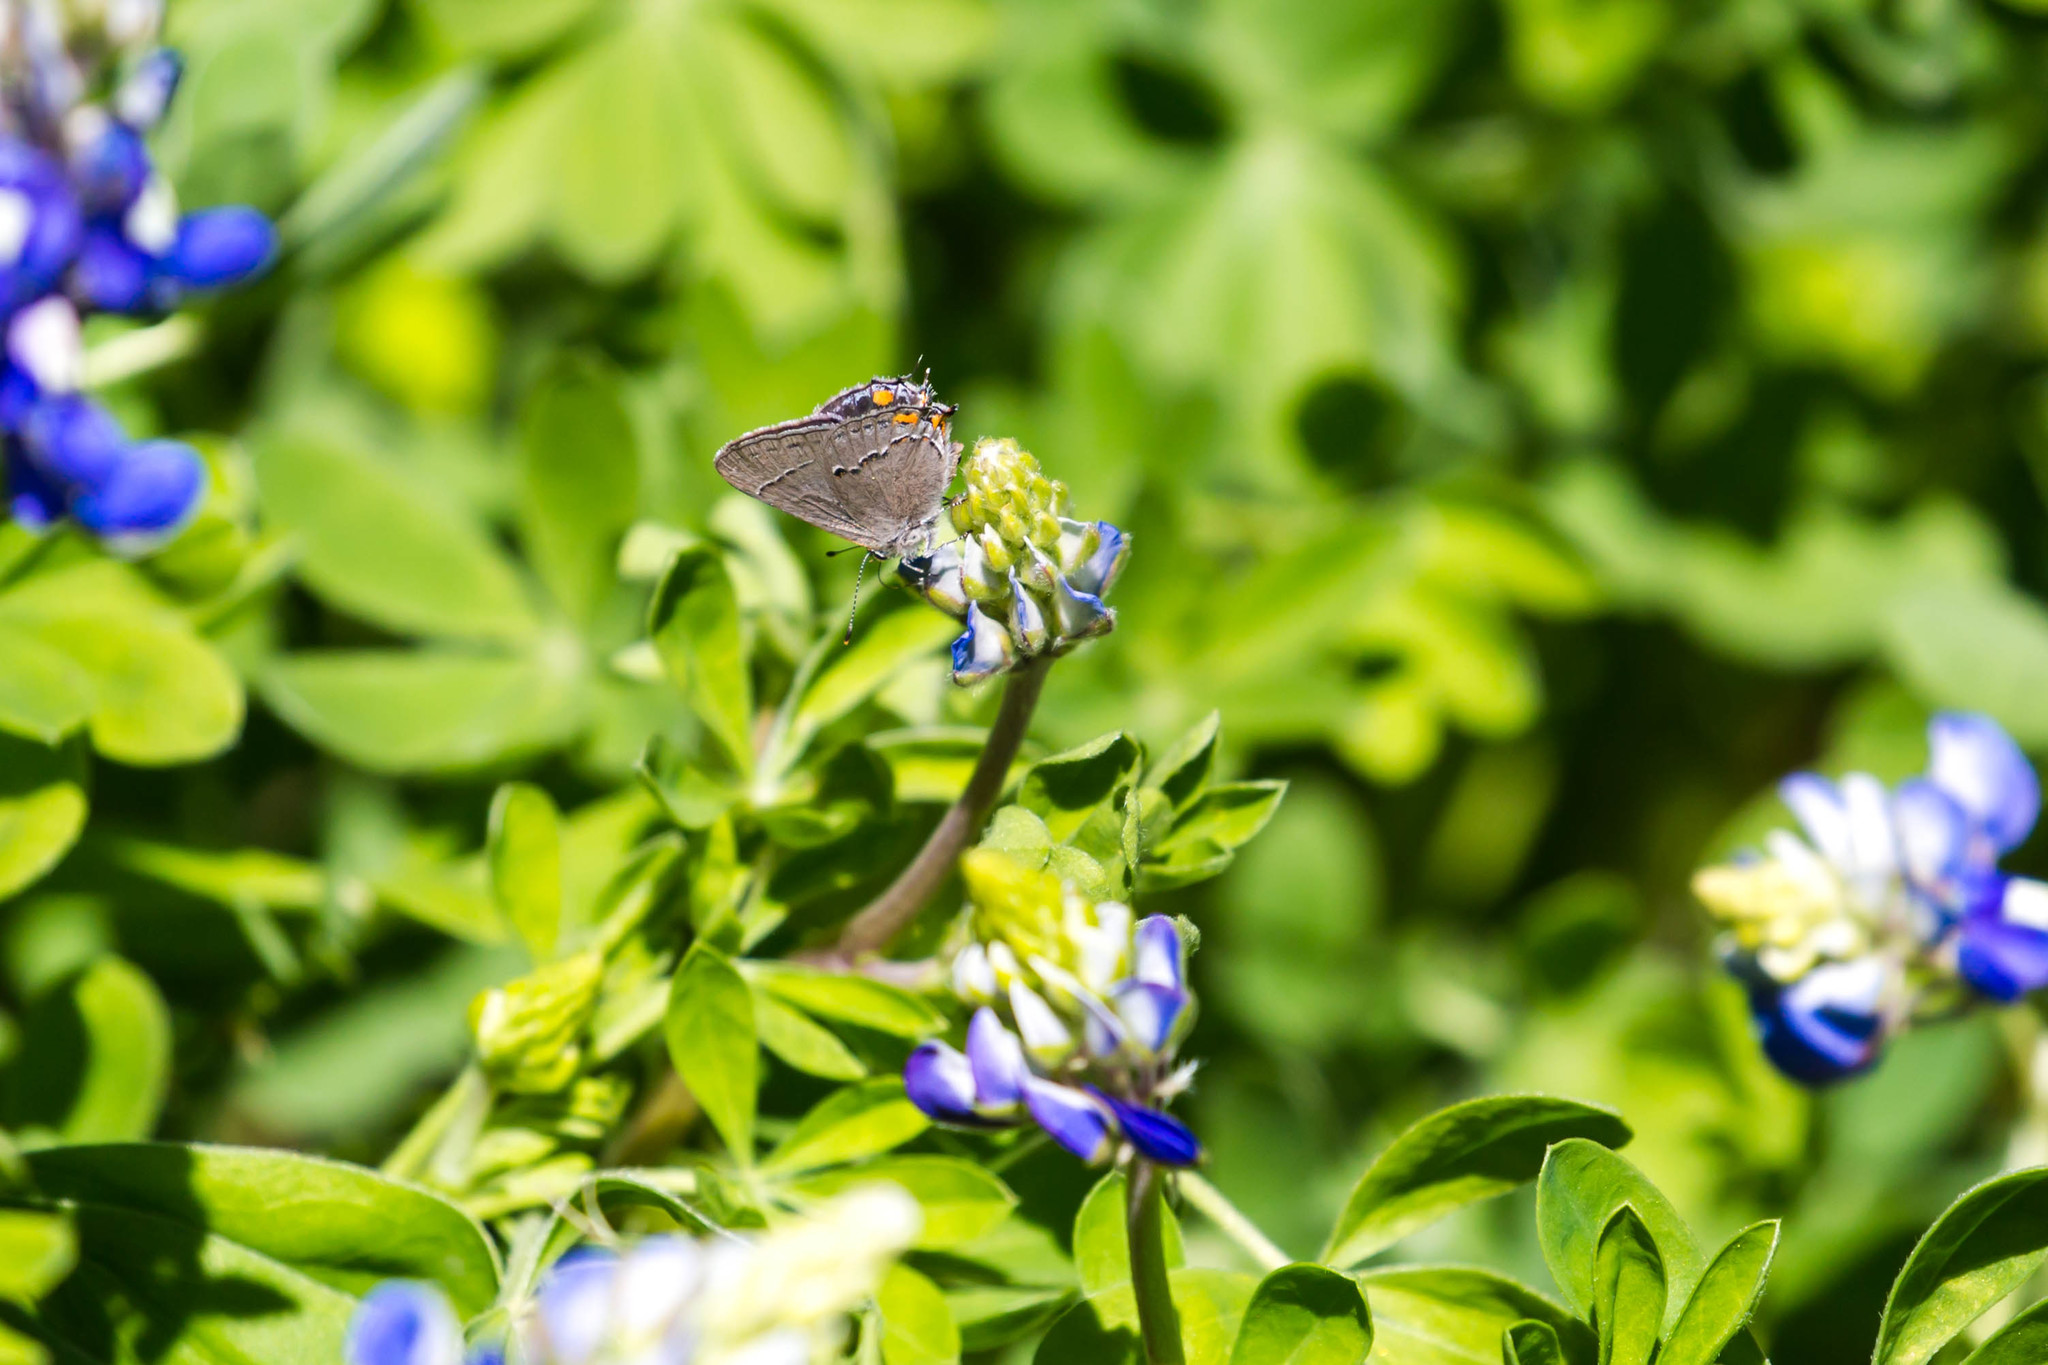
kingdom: Animalia
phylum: Arthropoda
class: Insecta
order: Lepidoptera
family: Lycaenidae
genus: Strymon
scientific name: Strymon melinus
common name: Gray hairstreak
